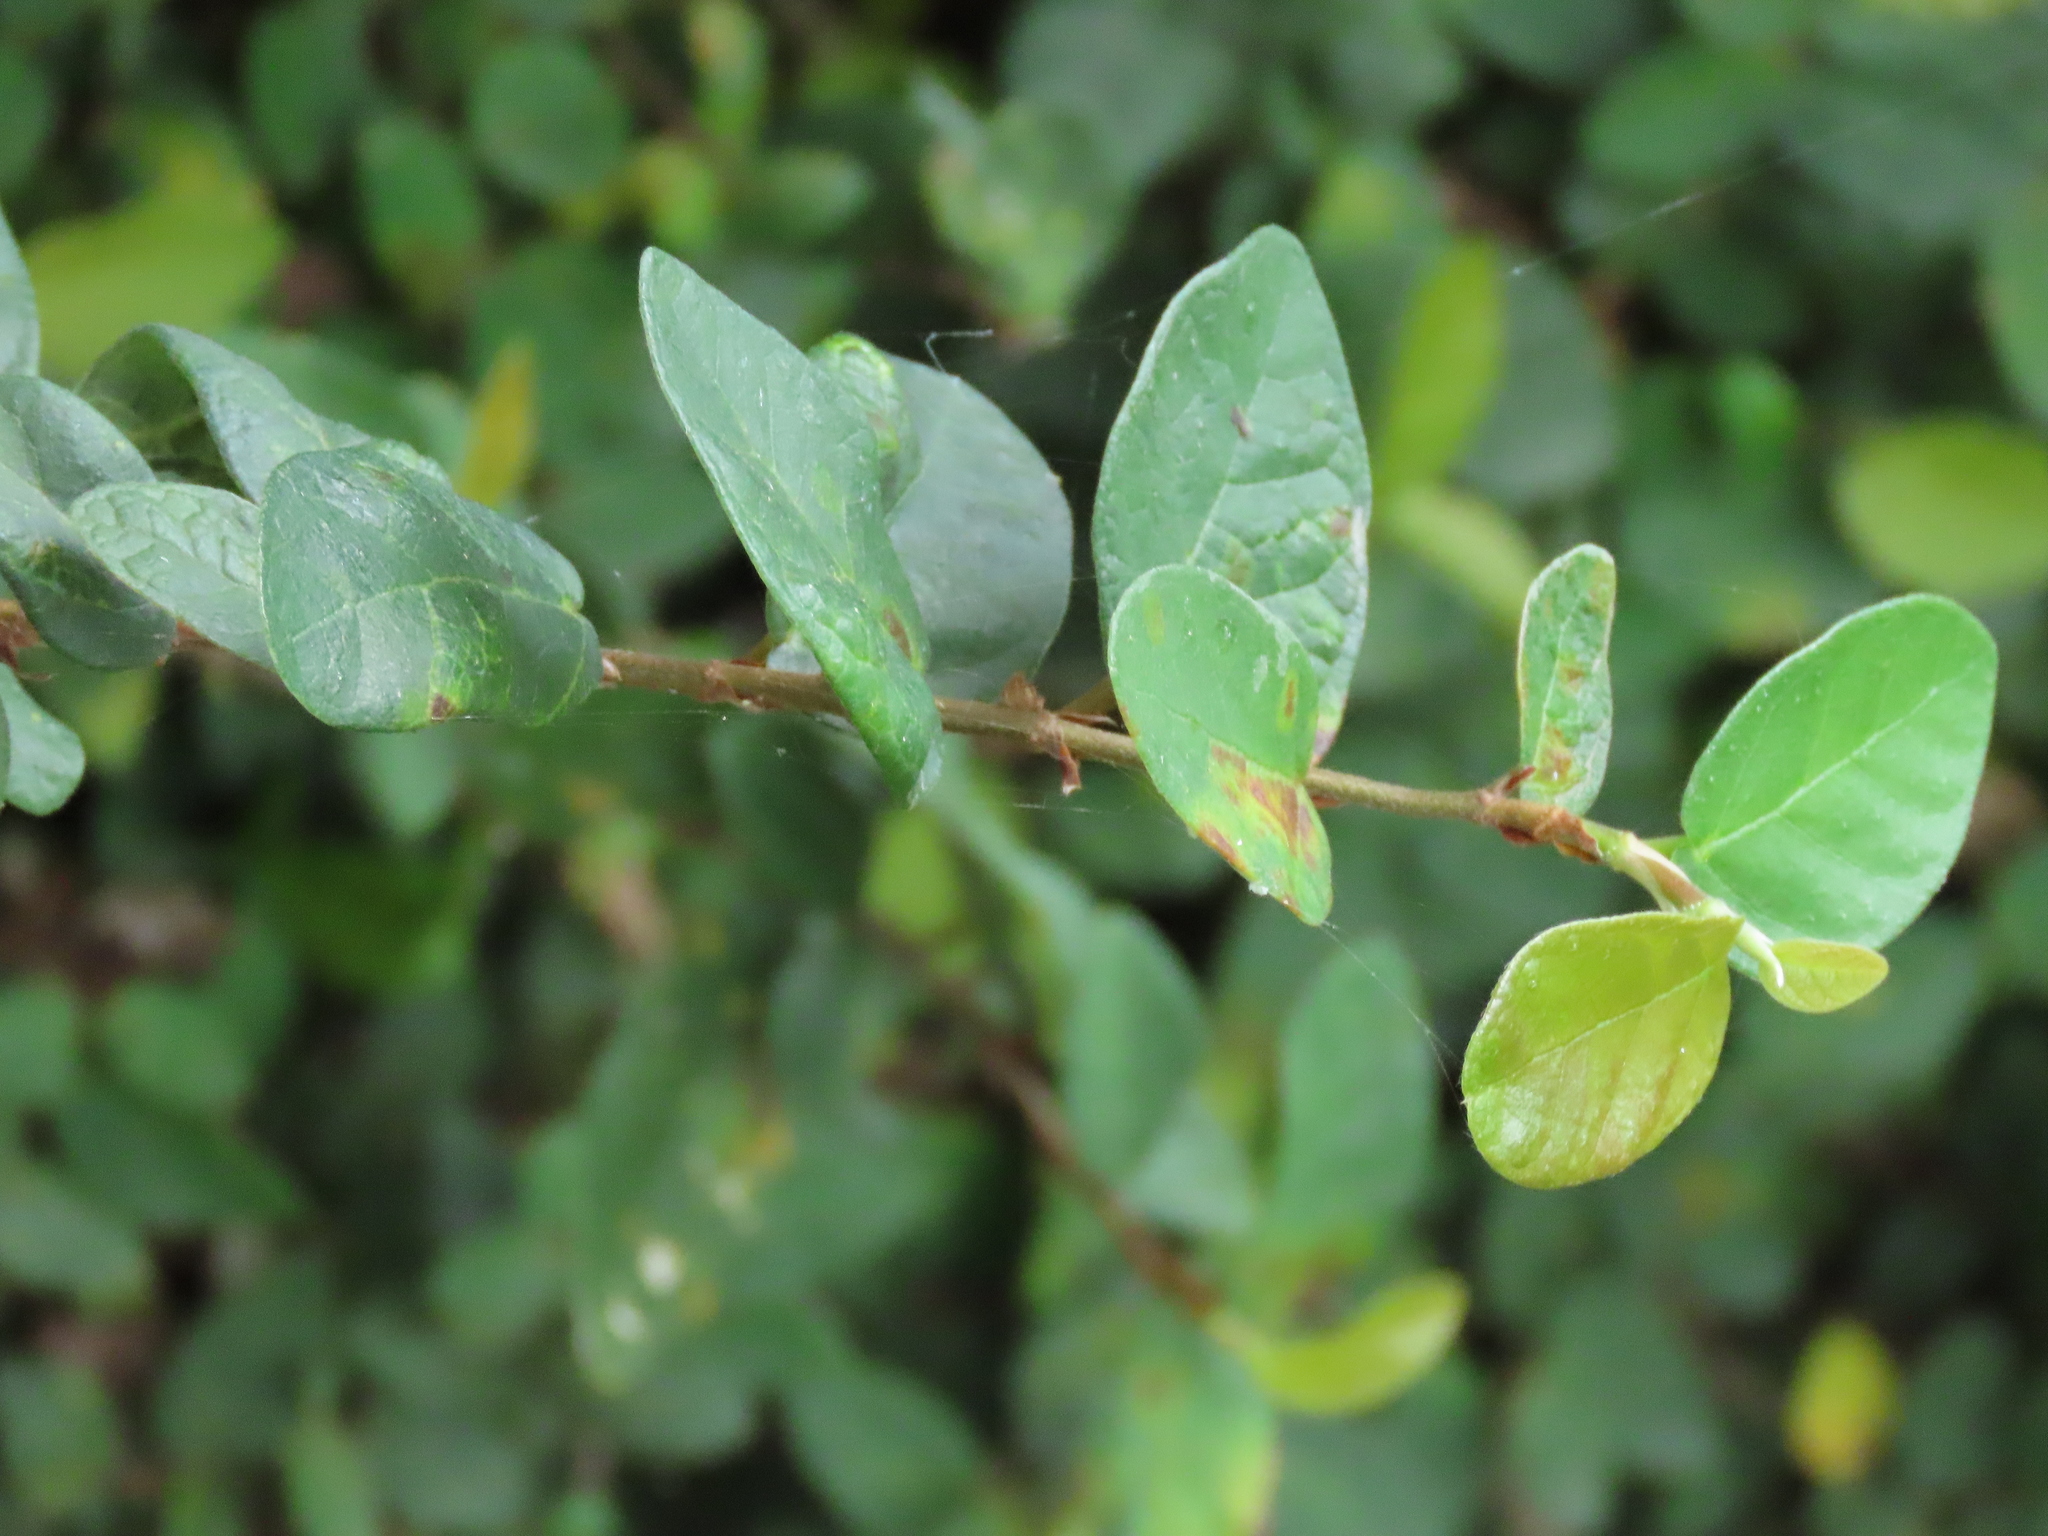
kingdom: Plantae
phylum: Tracheophyta
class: Magnoliopsida
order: Rosales
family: Moraceae
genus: Ficus
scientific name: Ficus pumila
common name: Climbingfig
